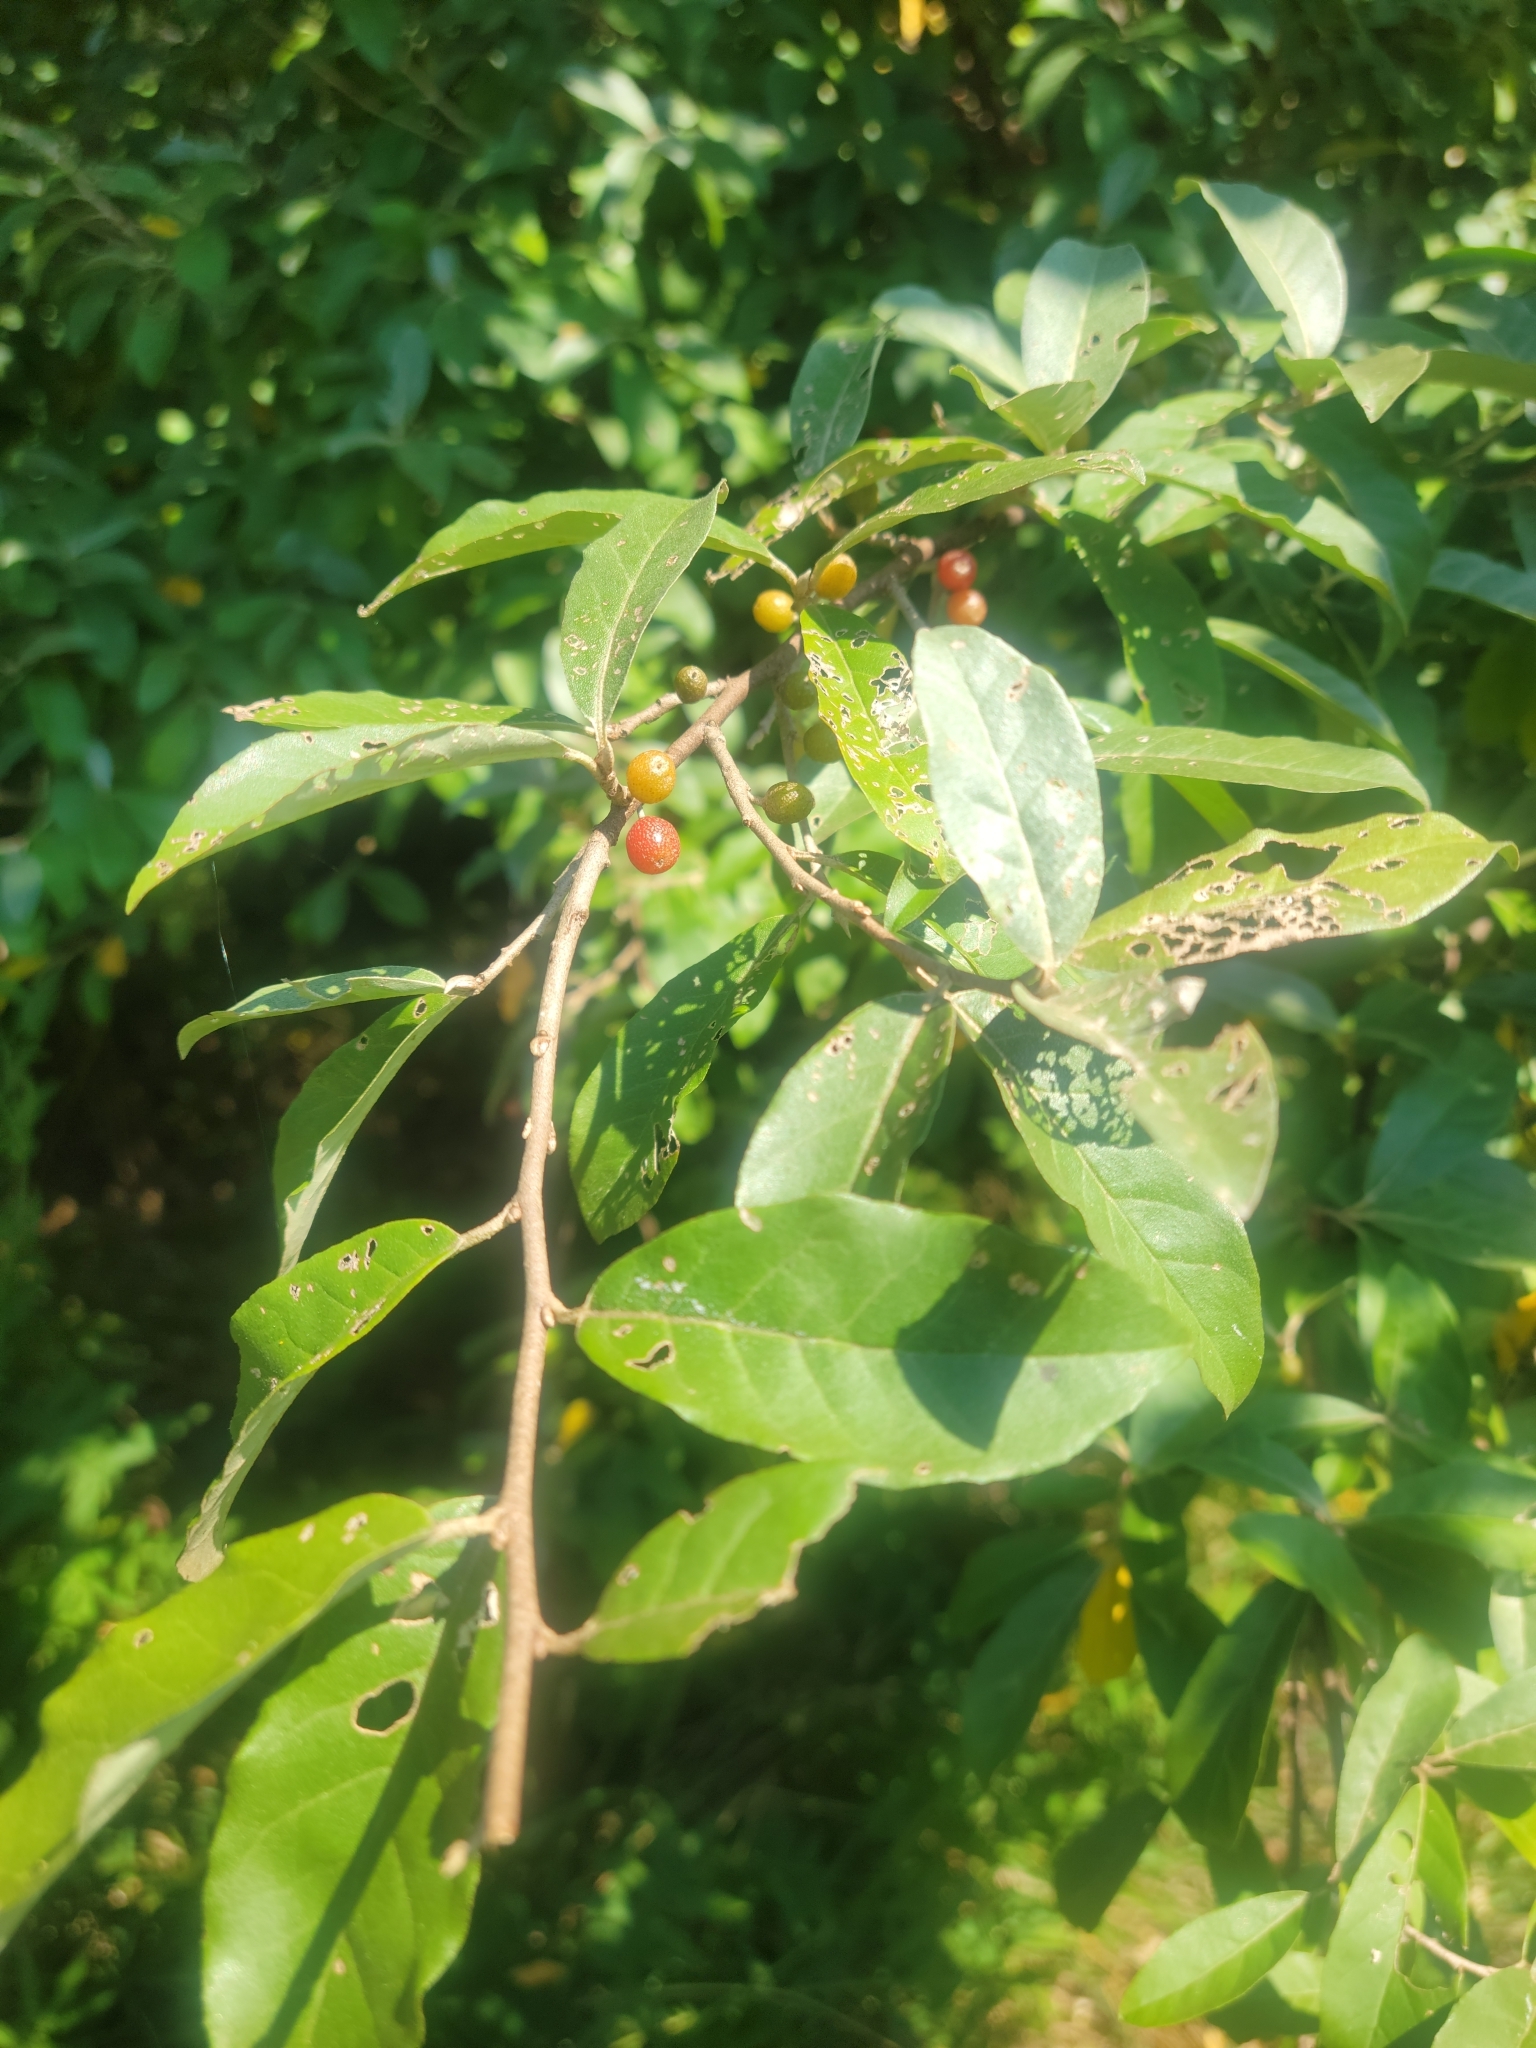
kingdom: Plantae
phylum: Tracheophyta
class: Magnoliopsida
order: Rosales
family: Elaeagnaceae
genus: Elaeagnus
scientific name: Elaeagnus umbellata
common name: Autumn olive
